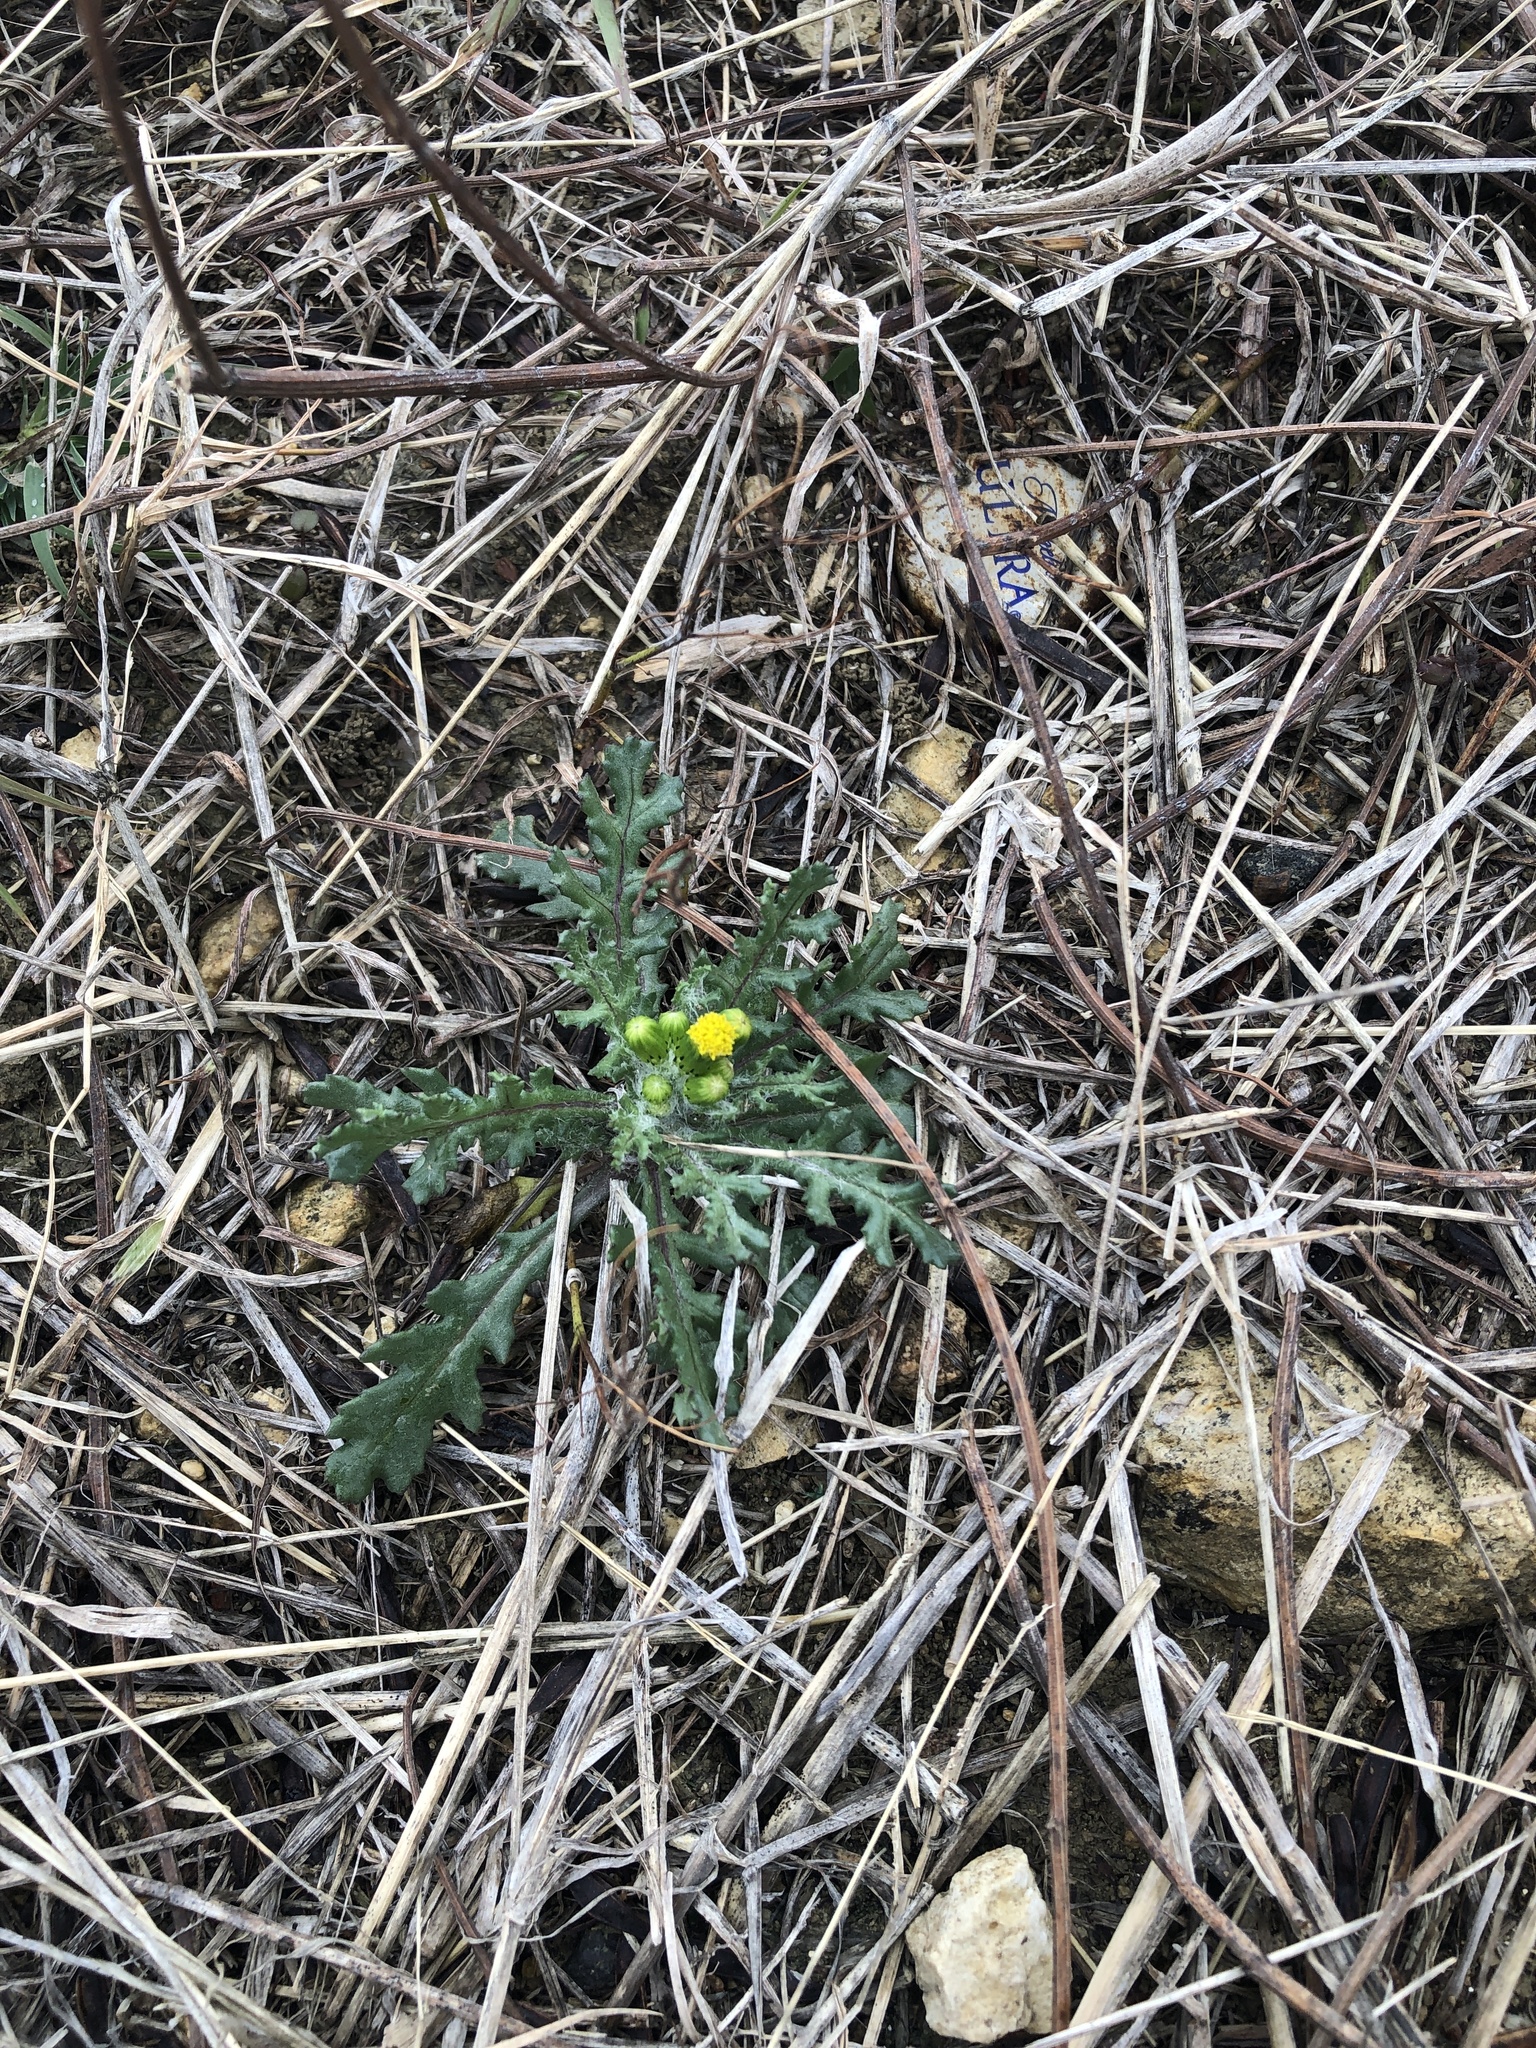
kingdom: Plantae
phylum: Tracheophyta
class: Magnoliopsida
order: Asterales
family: Asteraceae
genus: Senecio
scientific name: Senecio vulgaris
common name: Old-man-in-the-spring
